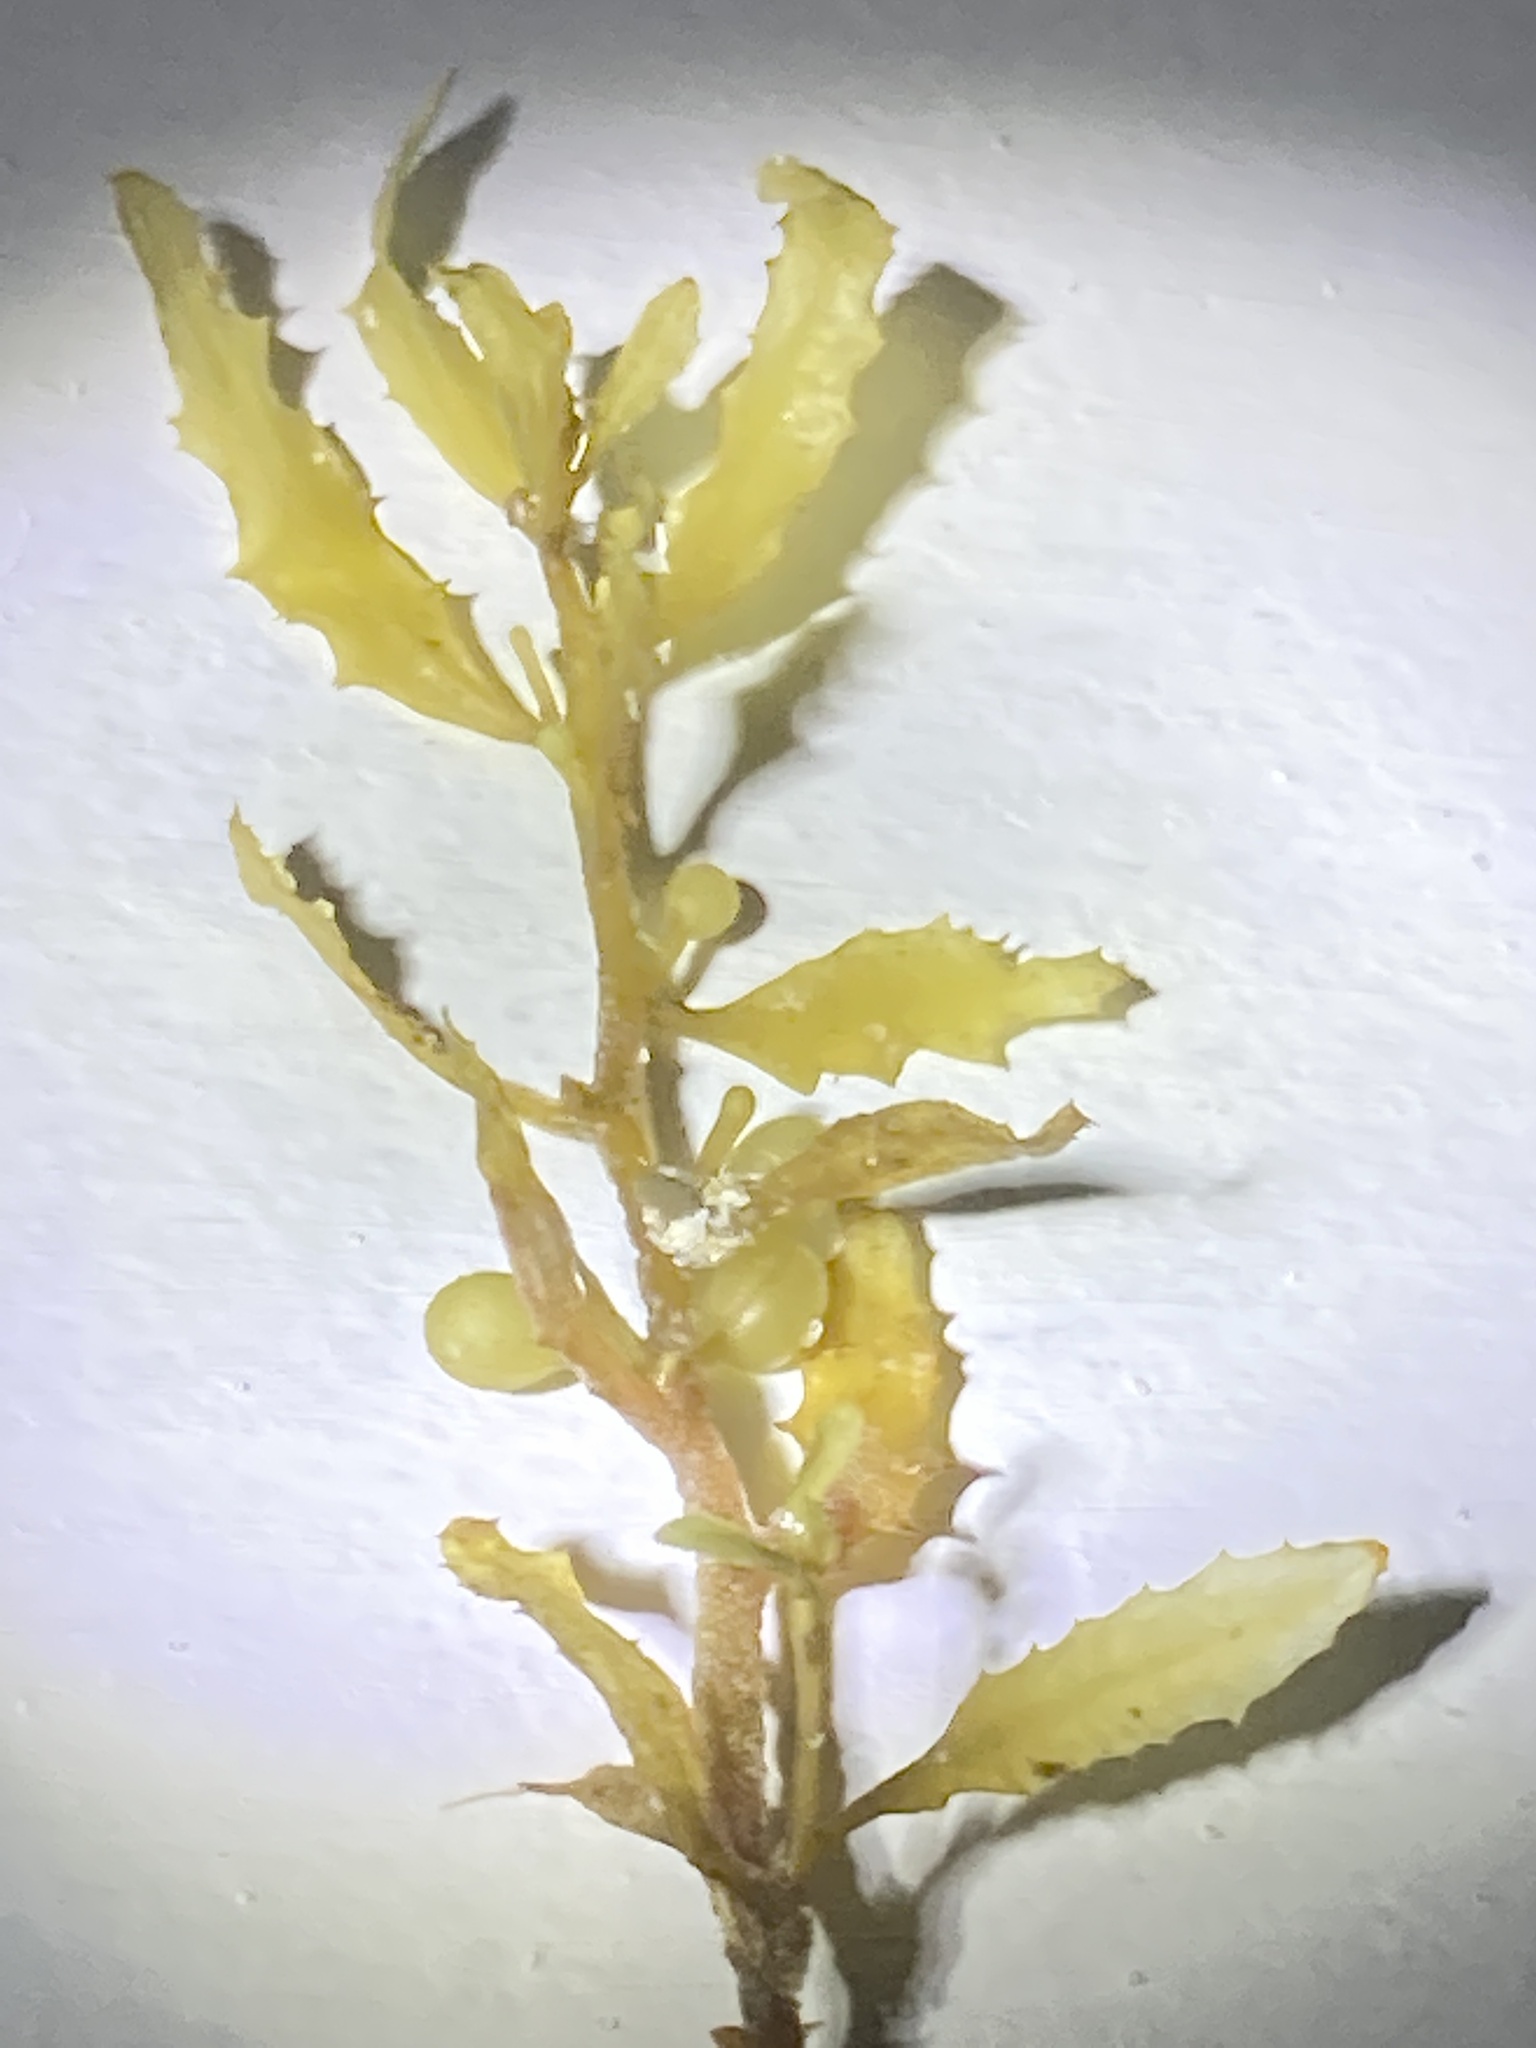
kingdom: Chromista
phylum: Ochrophyta
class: Phaeophyceae
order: Fucales
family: Sargassaceae
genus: Sargassum
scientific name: Sargassum fluitans
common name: Sargassum seaweed
